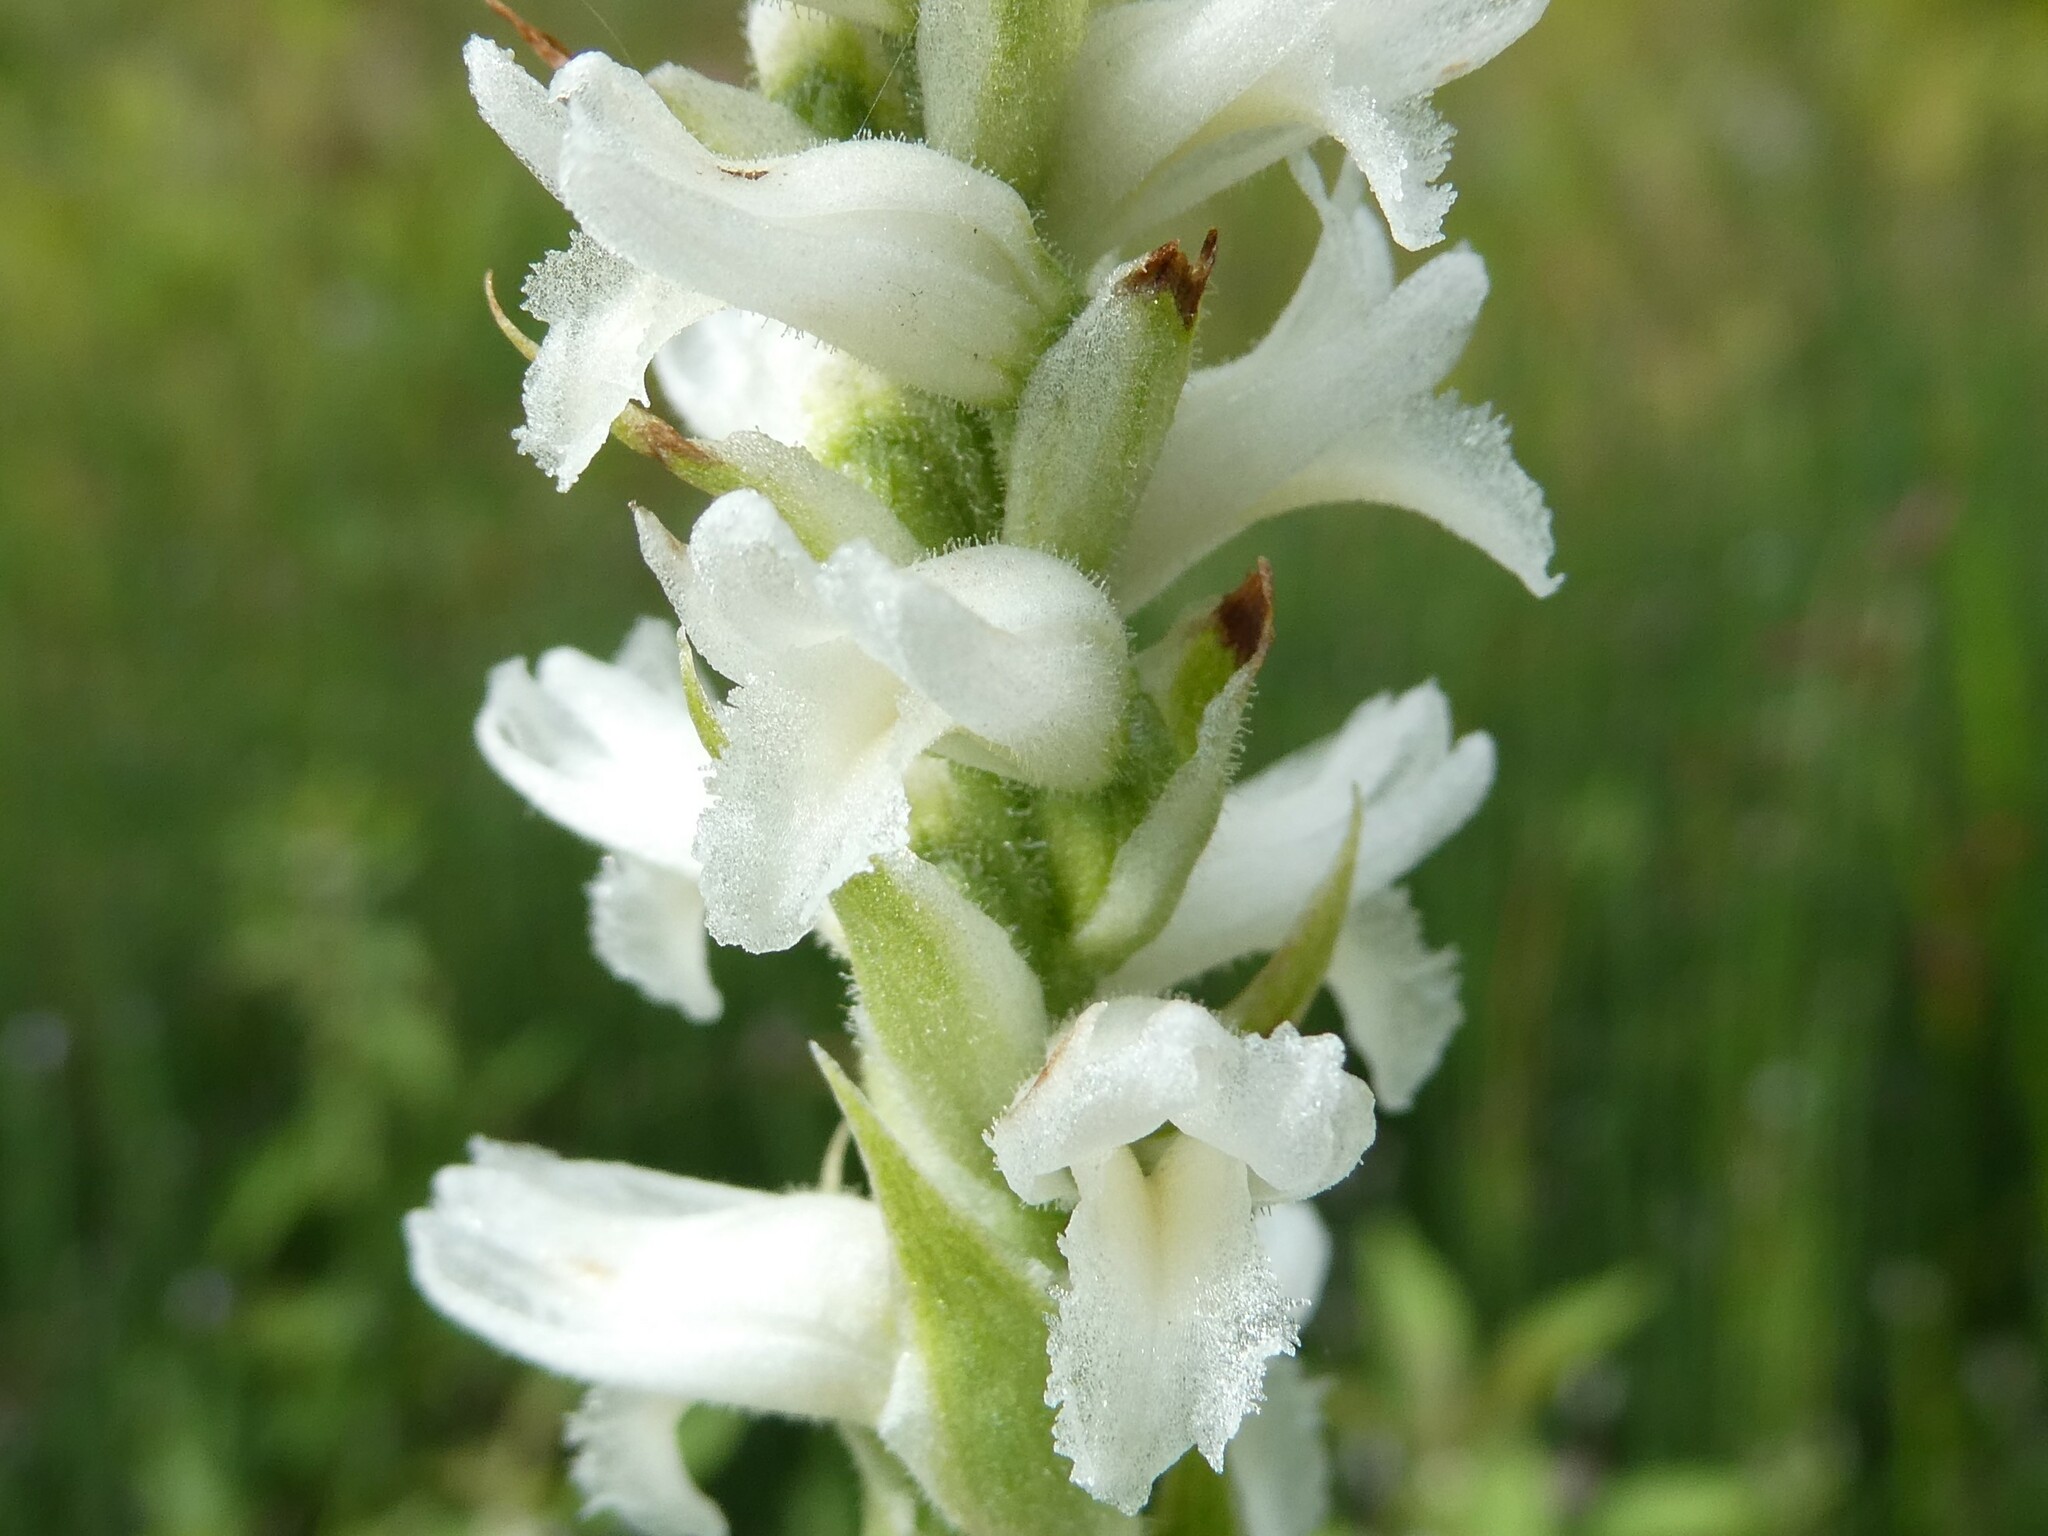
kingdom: Plantae
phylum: Tracheophyta
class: Liliopsida
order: Asparagales
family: Orchidaceae
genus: Spiranthes
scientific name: Spiranthes incurva
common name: Sphinx ladies'-tresses
